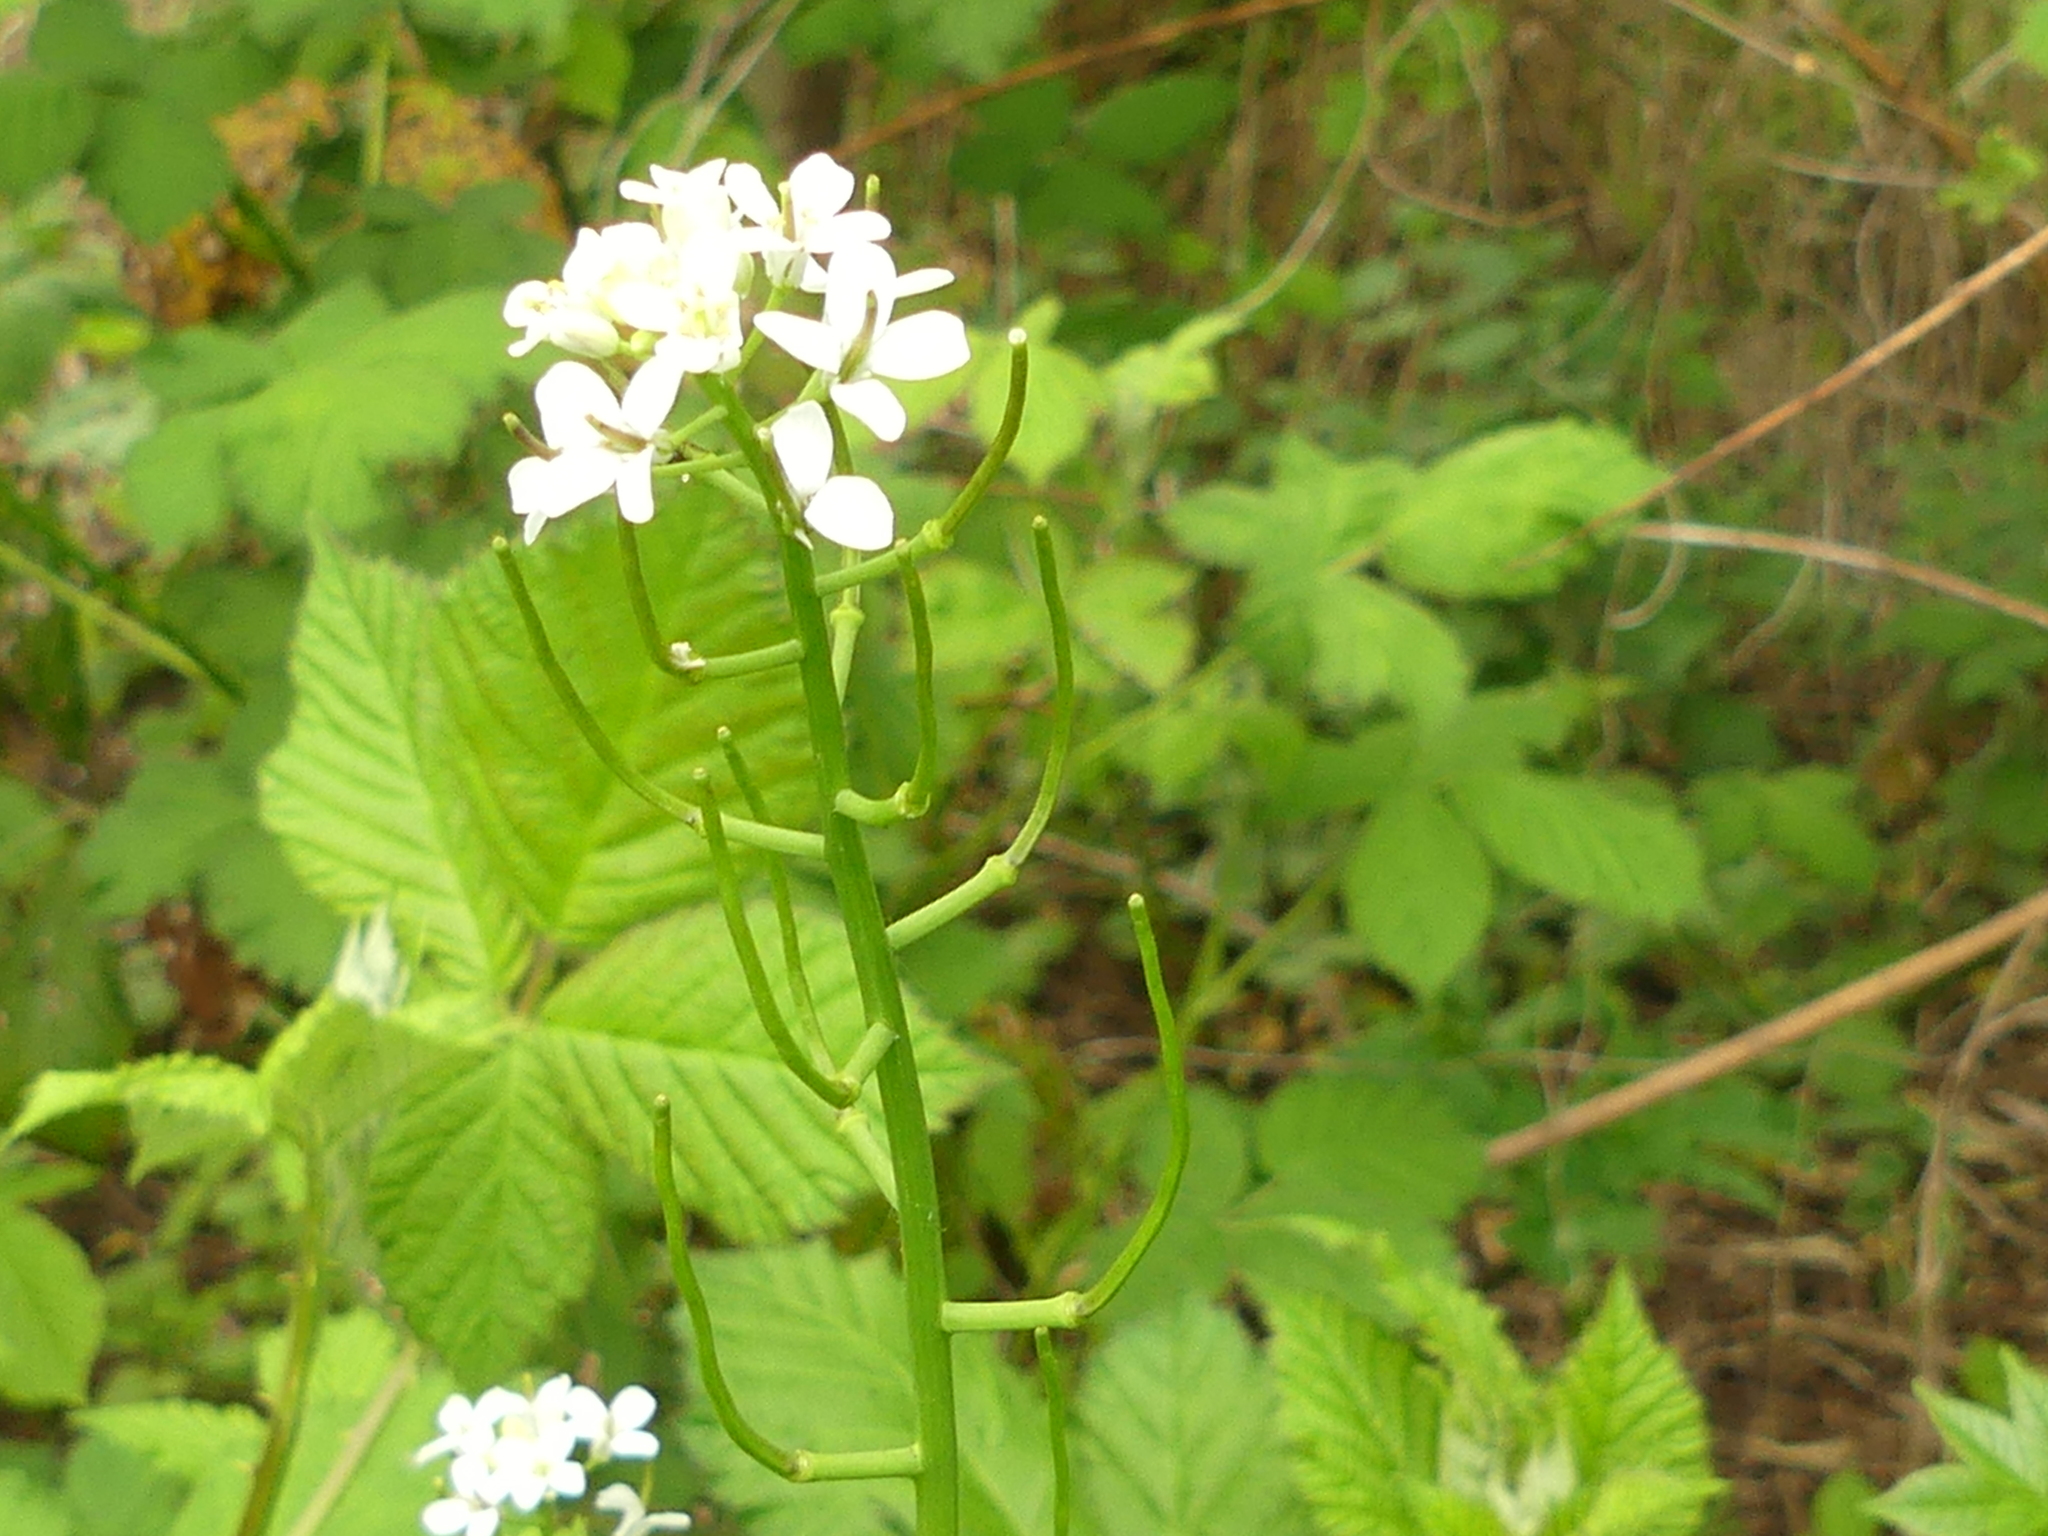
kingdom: Plantae
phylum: Tracheophyta
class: Magnoliopsida
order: Brassicales
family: Brassicaceae
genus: Alliaria
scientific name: Alliaria petiolata
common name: Garlic mustard
